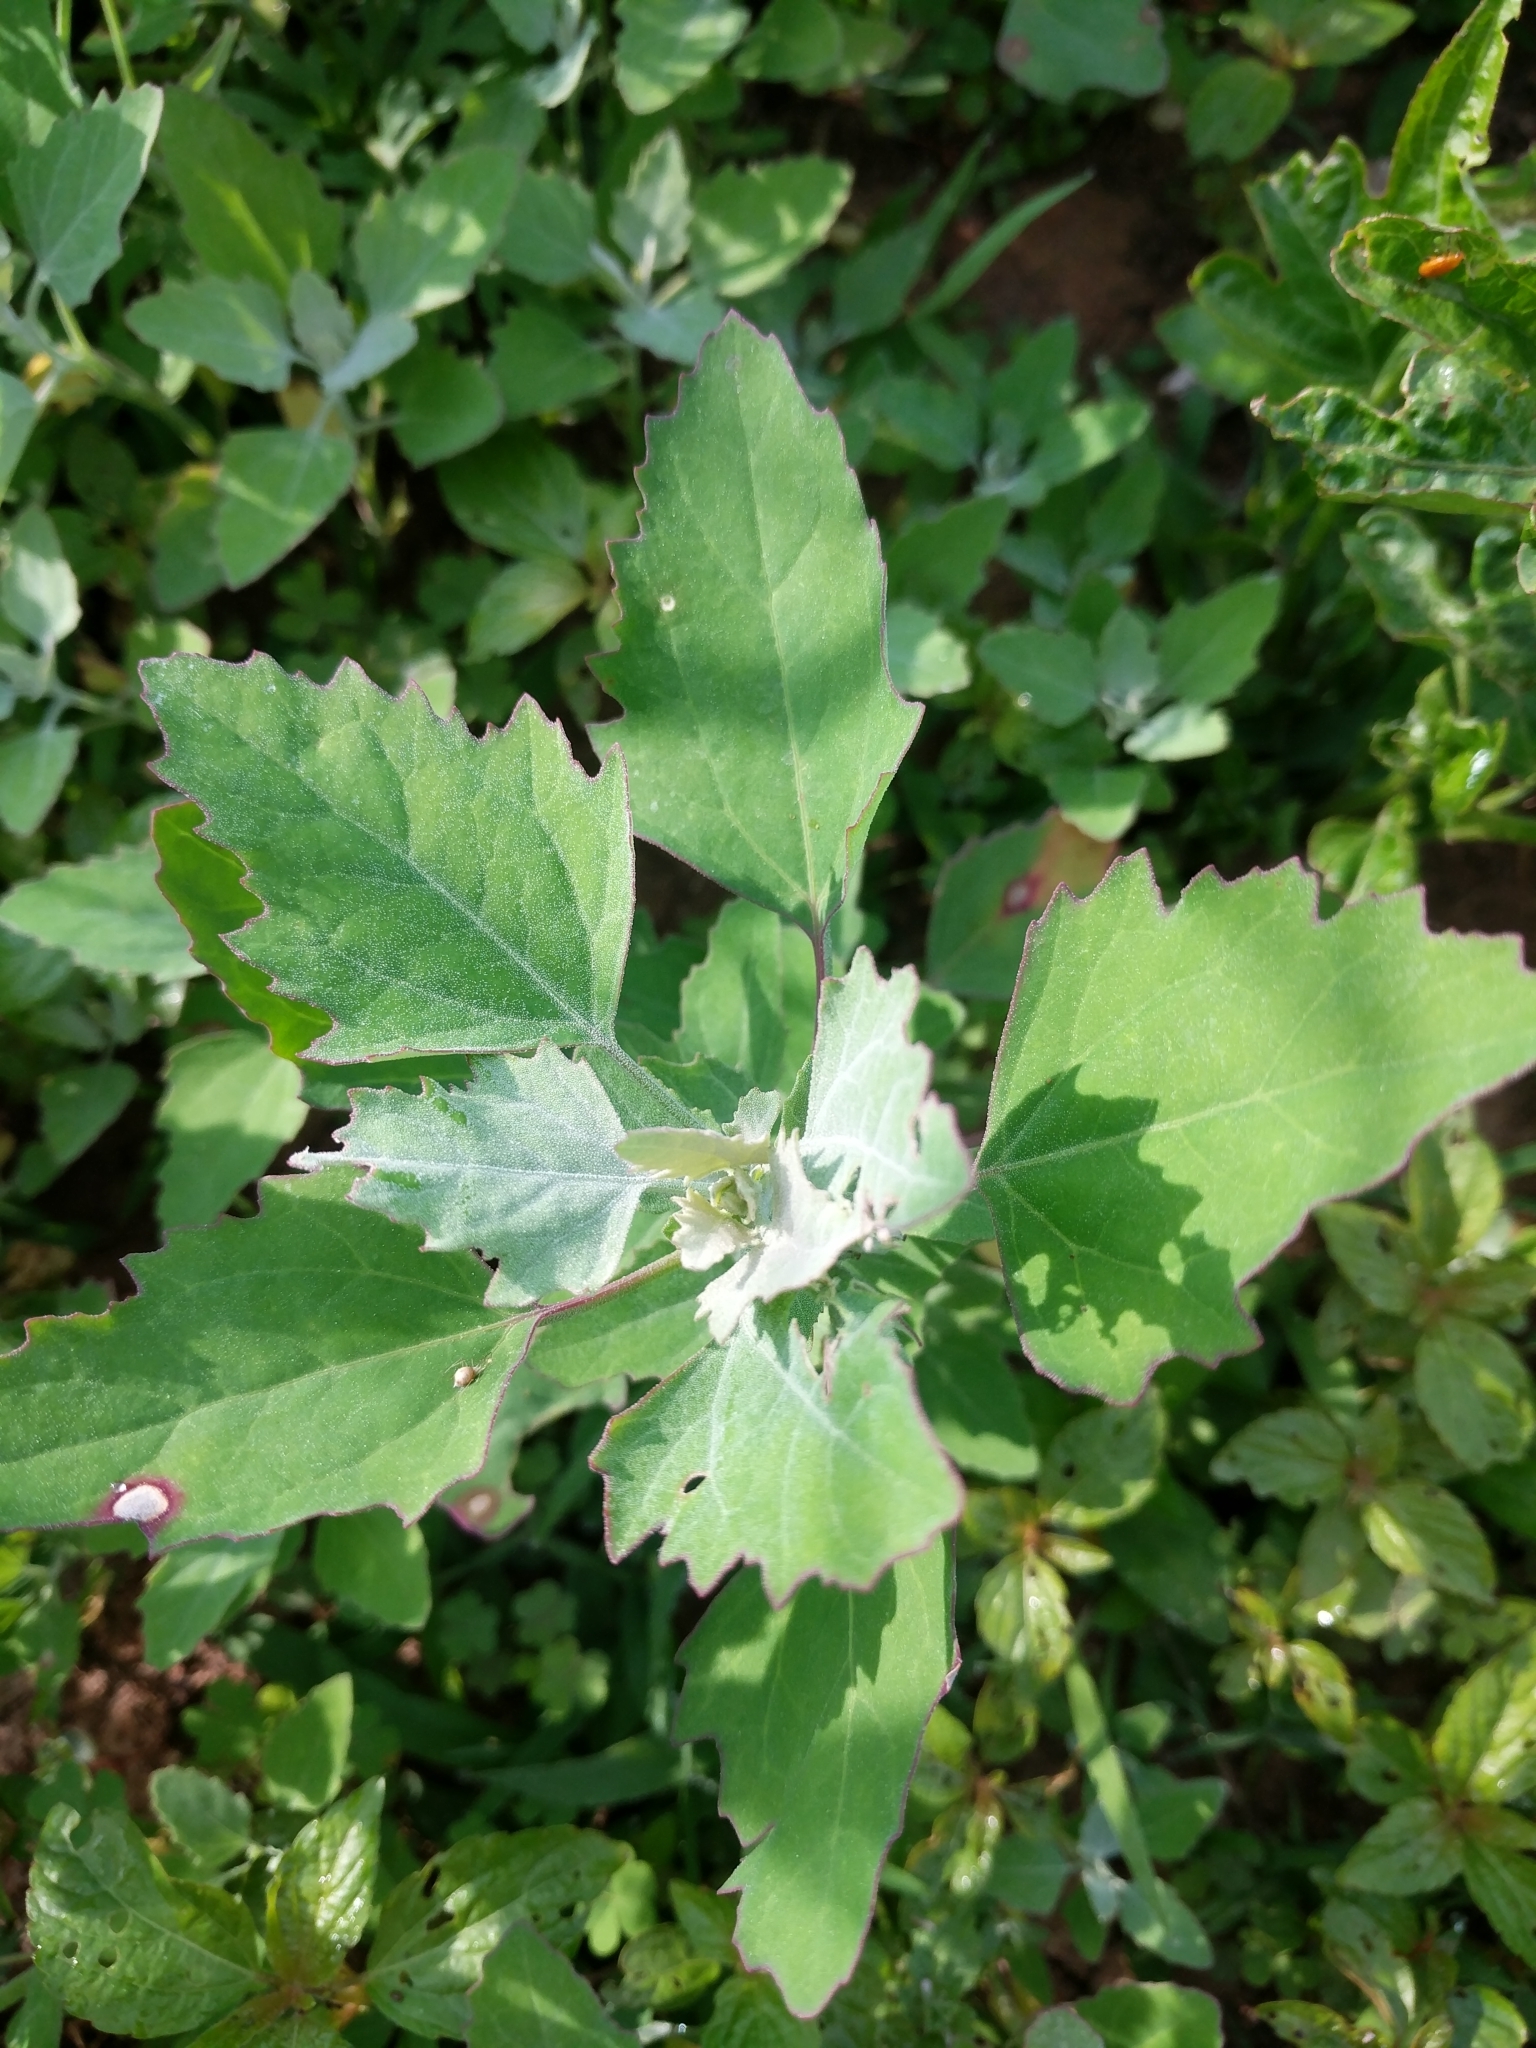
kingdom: Plantae
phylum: Tracheophyta
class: Magnoliopsida
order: Caryophyllales
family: Amaranthaceae
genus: Chenopodium
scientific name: Chenopodium album
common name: Fat-hen
